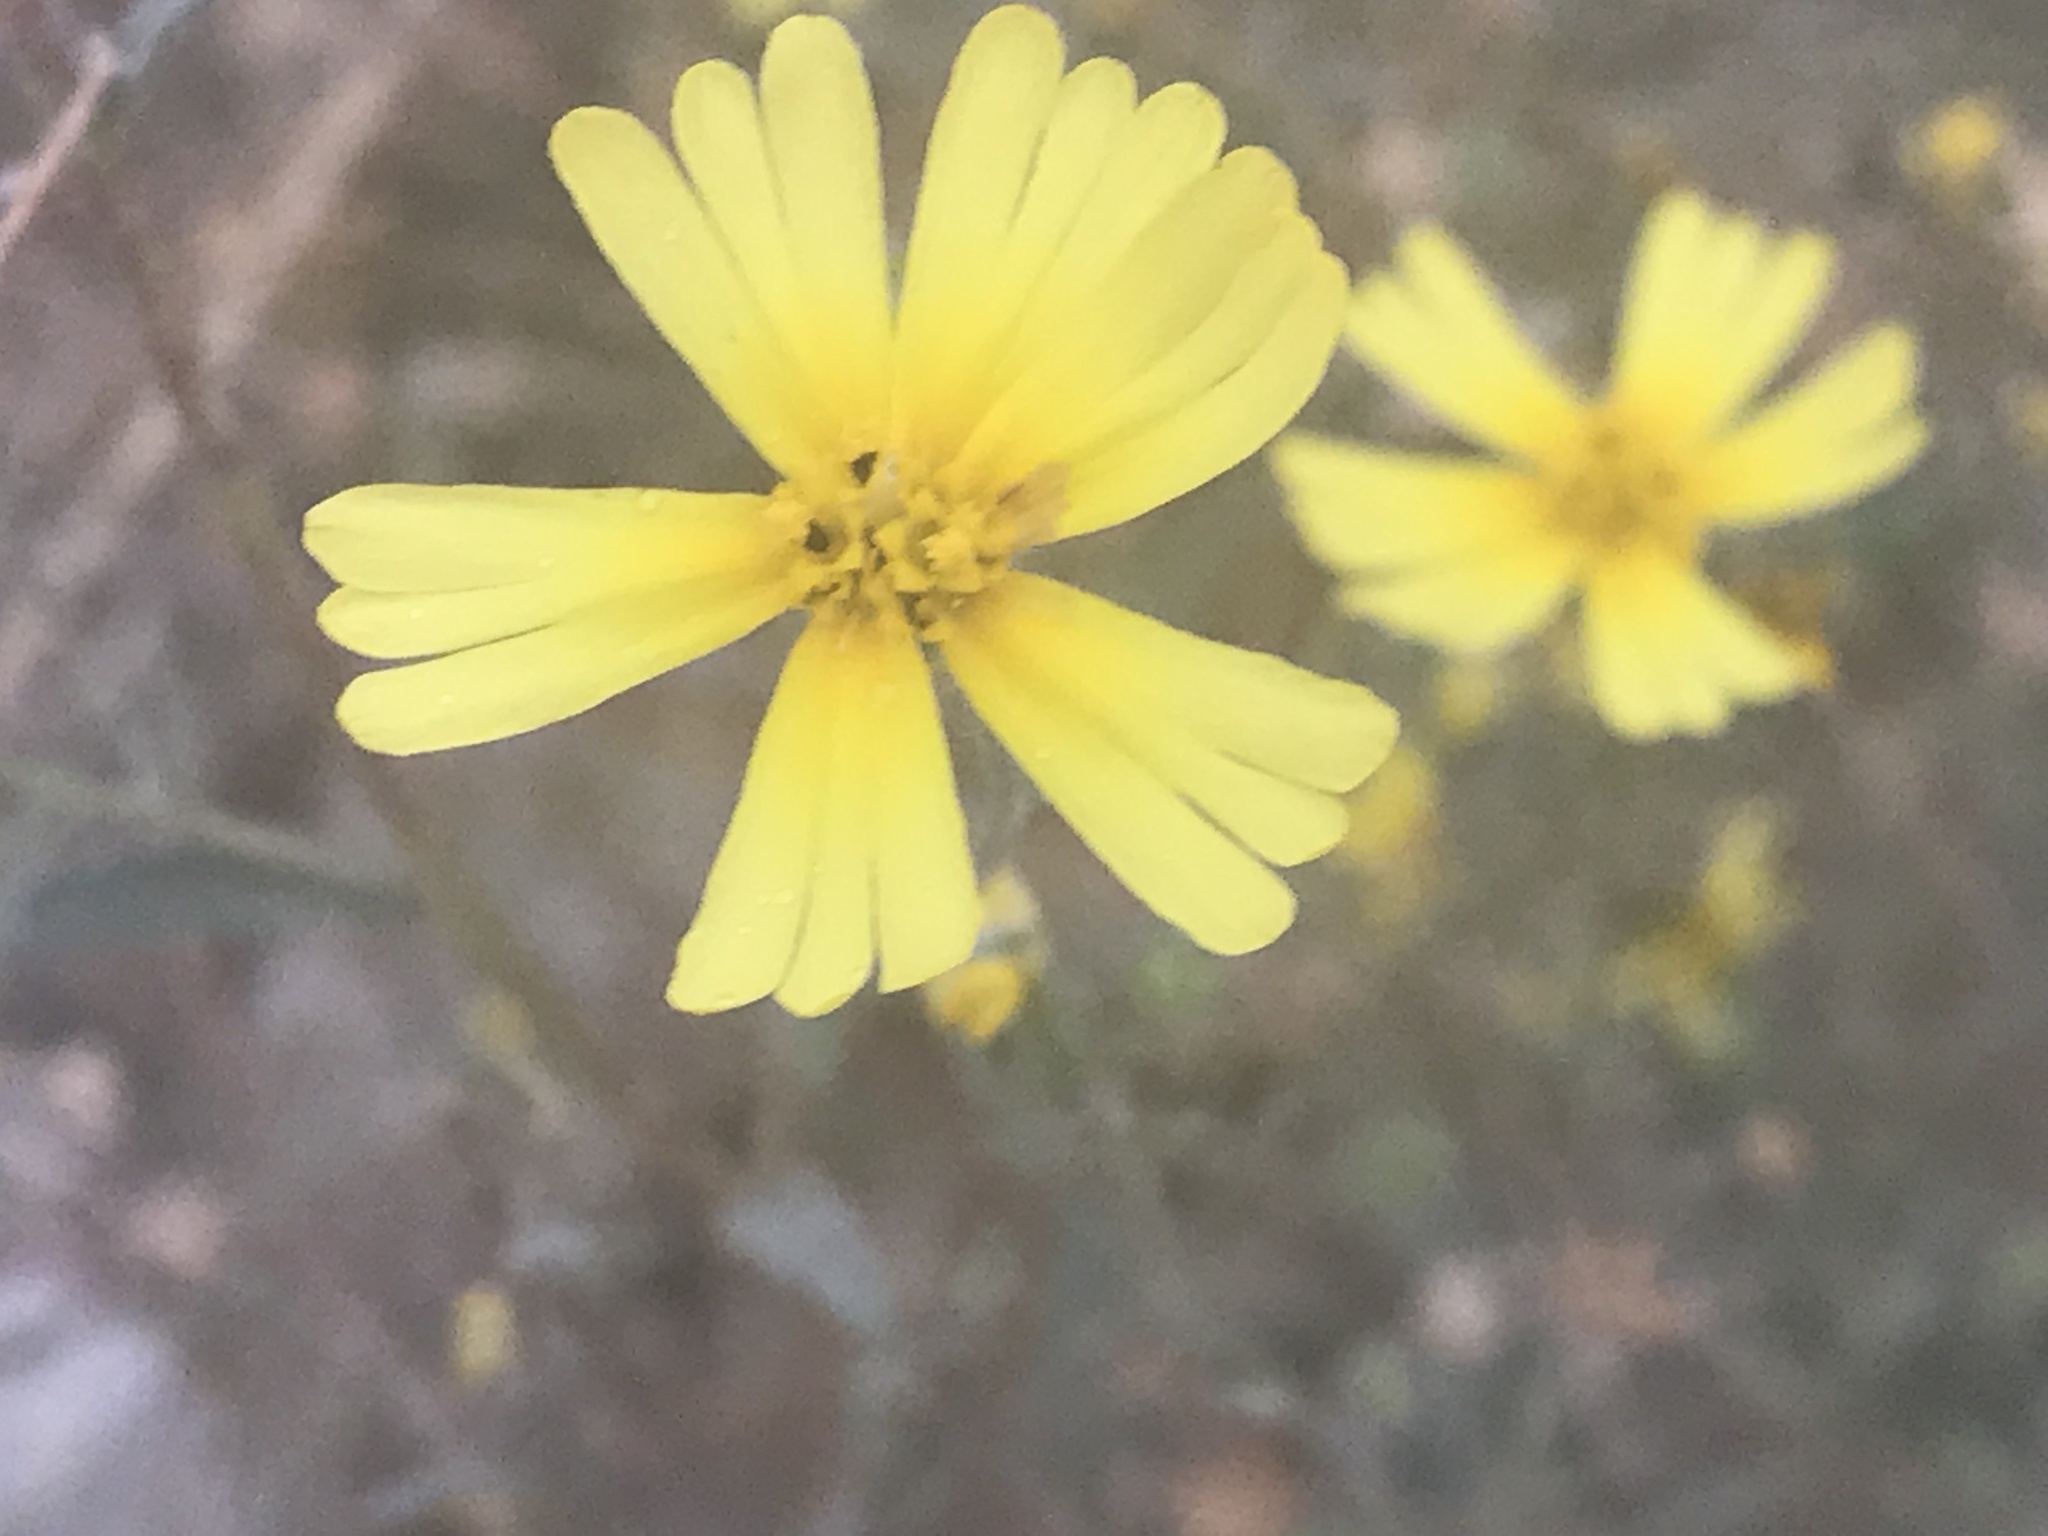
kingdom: Plantae
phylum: Tracheophyta
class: Magnoliopsida
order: Asterales
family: Asteraceae
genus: Madia
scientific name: Madia elegans
